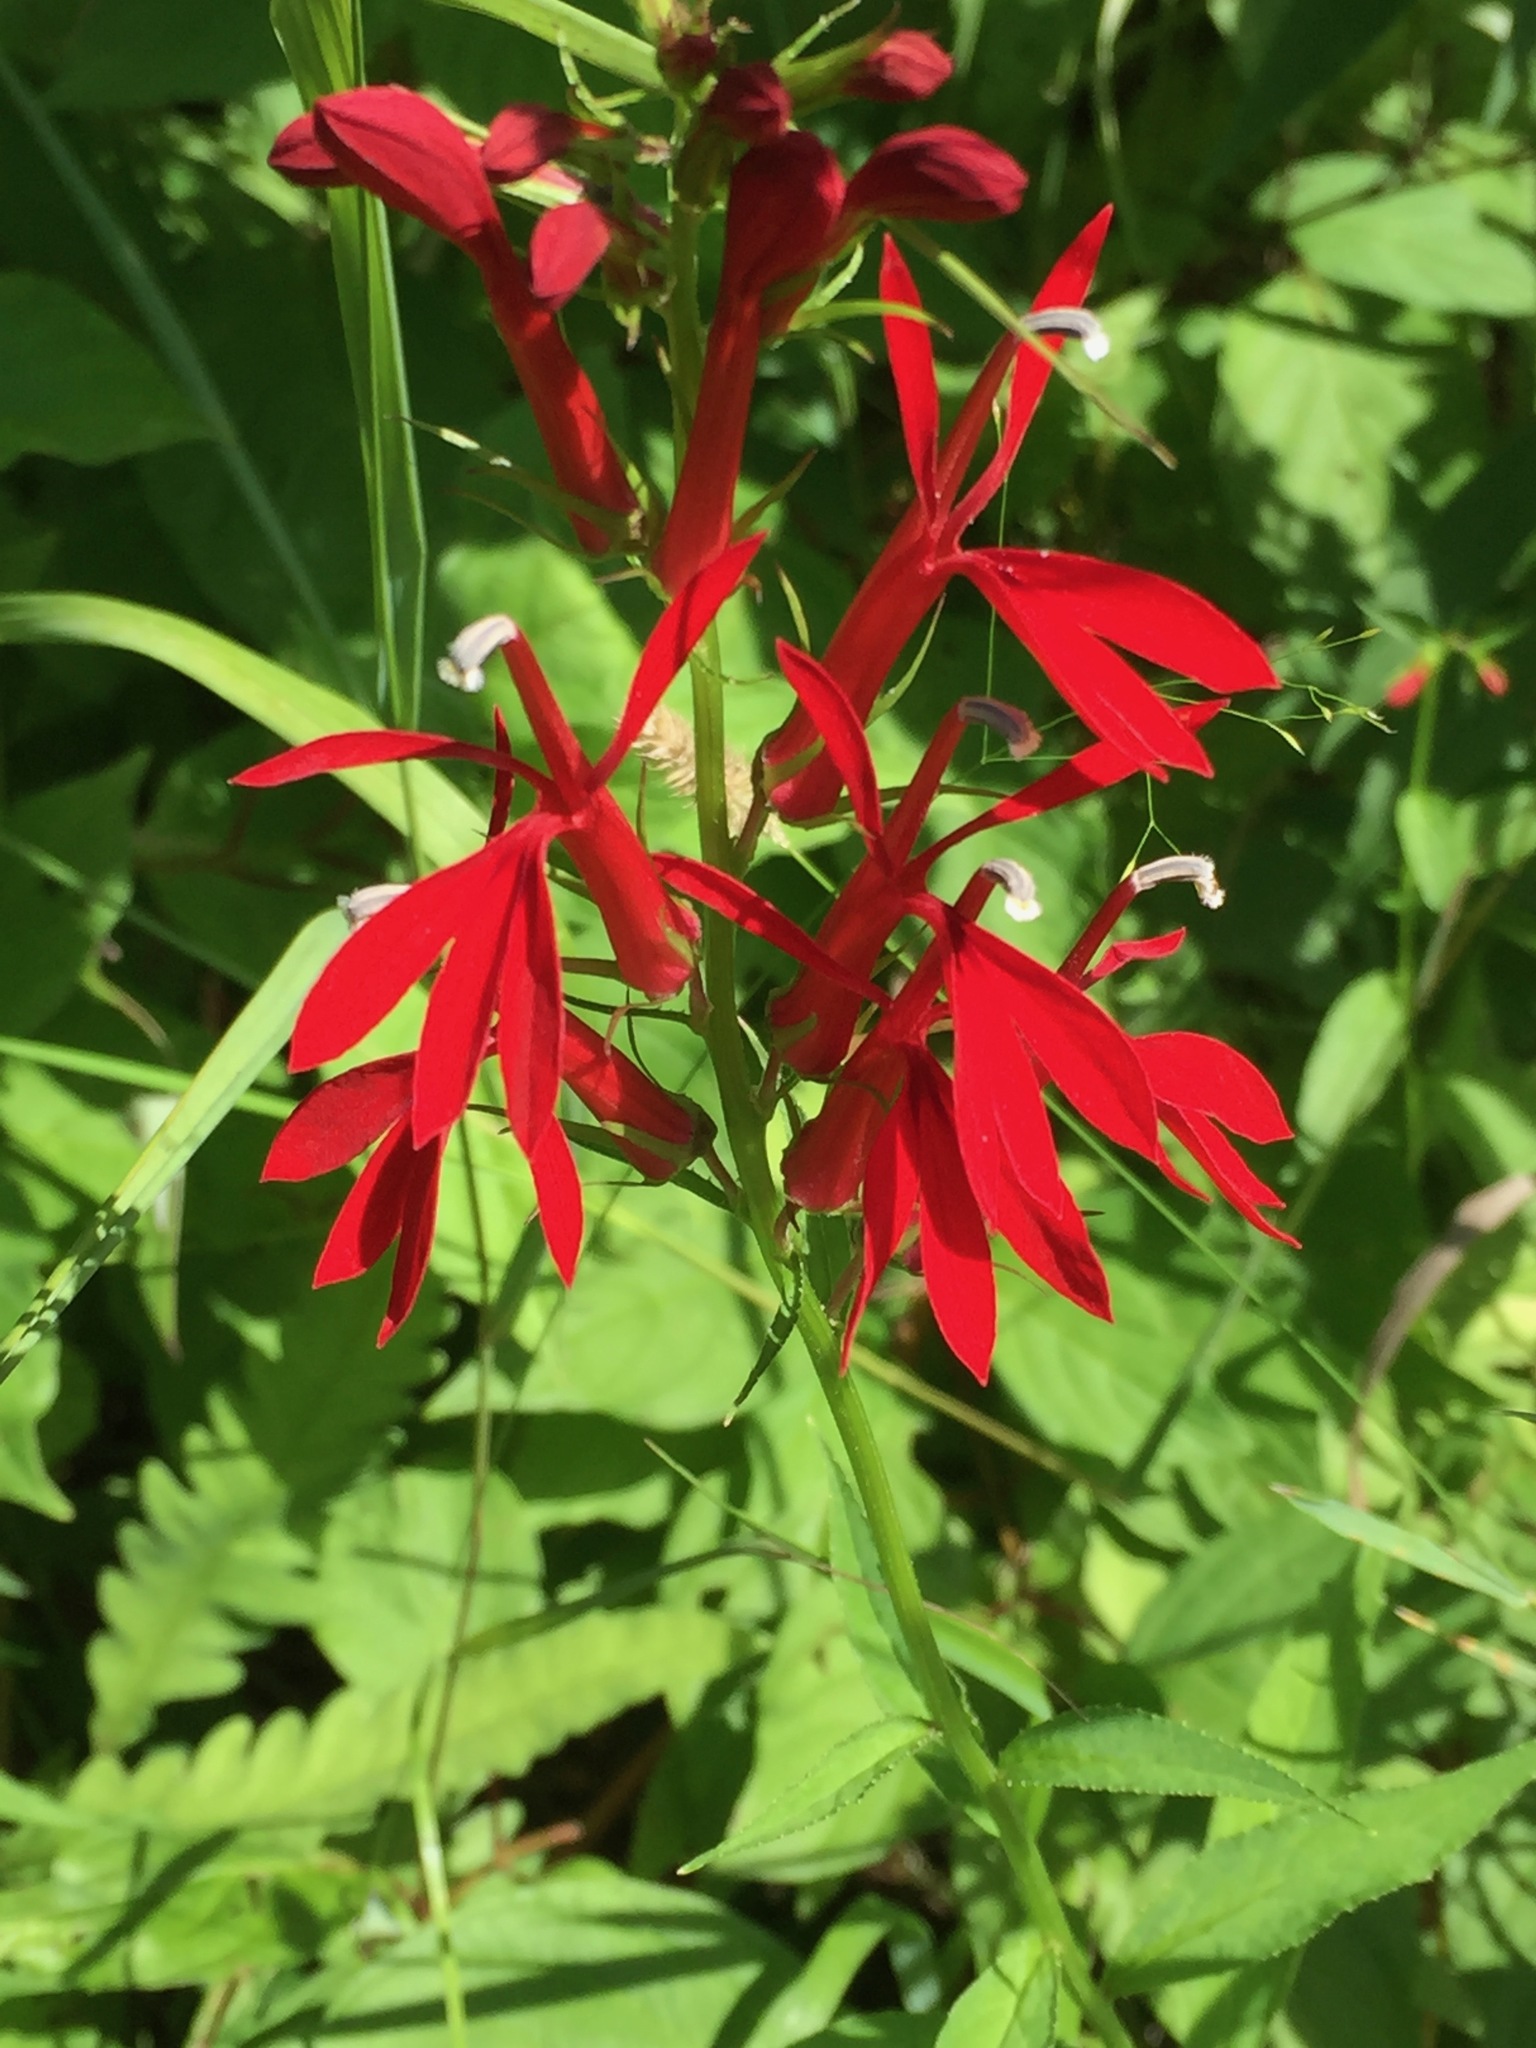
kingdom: Plantae
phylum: Tracheophyta
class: Magnoliopsida
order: Asterales
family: Campanulaceae
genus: Lobelia
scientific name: Lobelia cardinalis
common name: Cardinal flower
